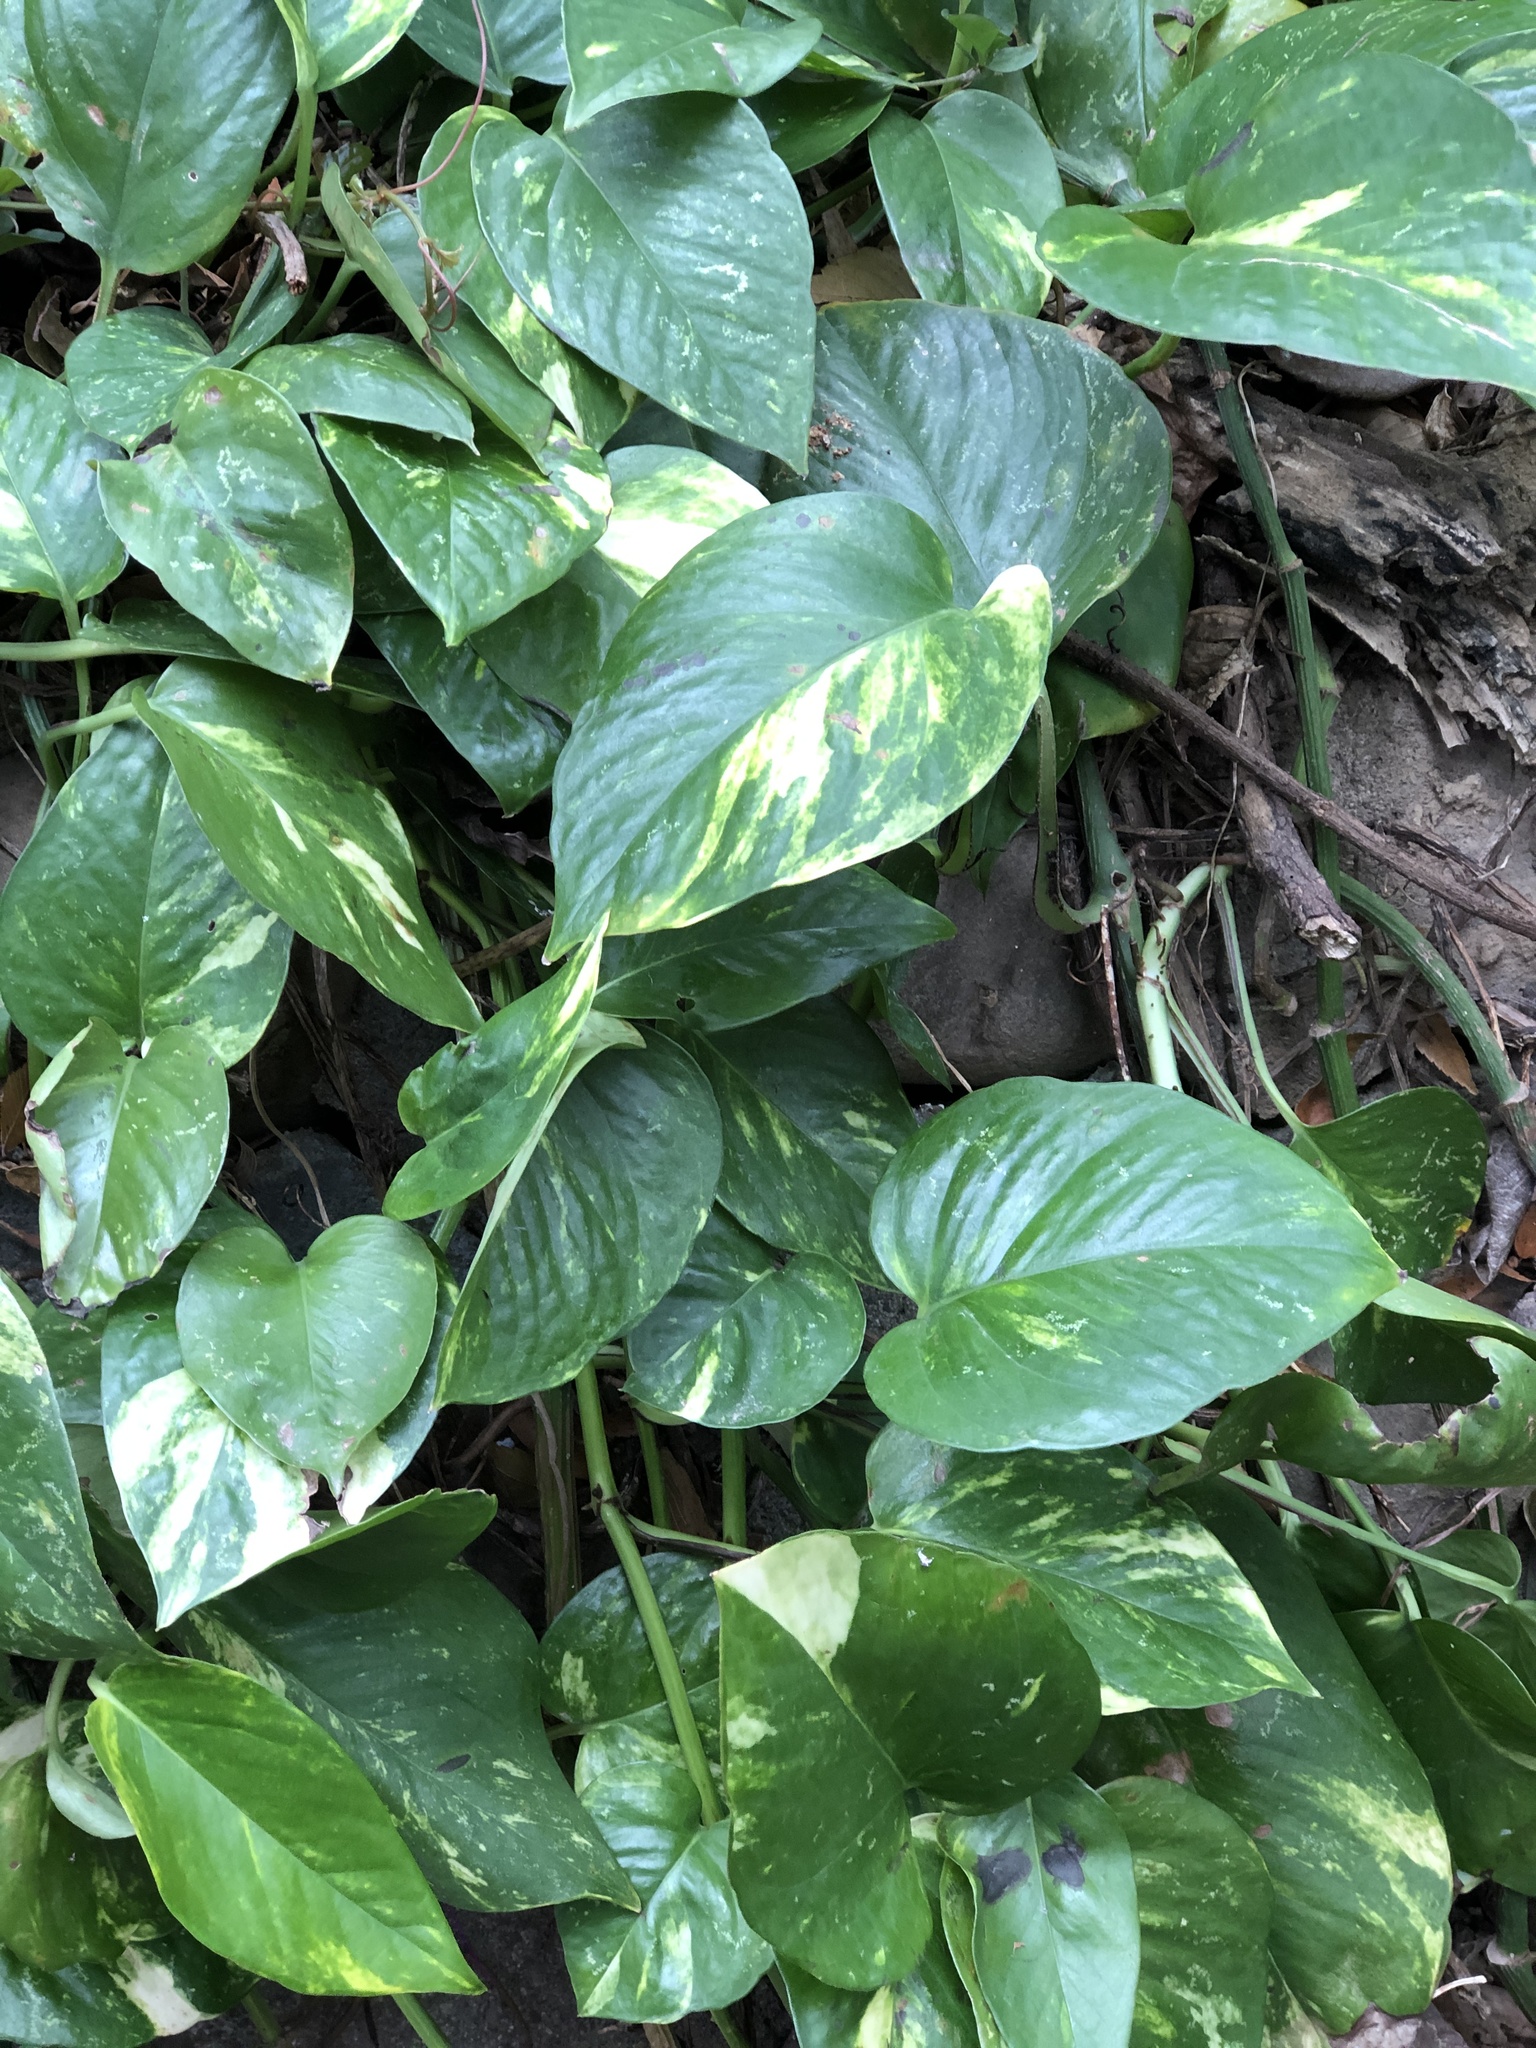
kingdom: Plantae
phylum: Tracheophyta
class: Liliopsida
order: Alismatales
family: Araceae
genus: Epipremnum
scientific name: Epipremnum aureum
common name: Golden hunter's-robe
